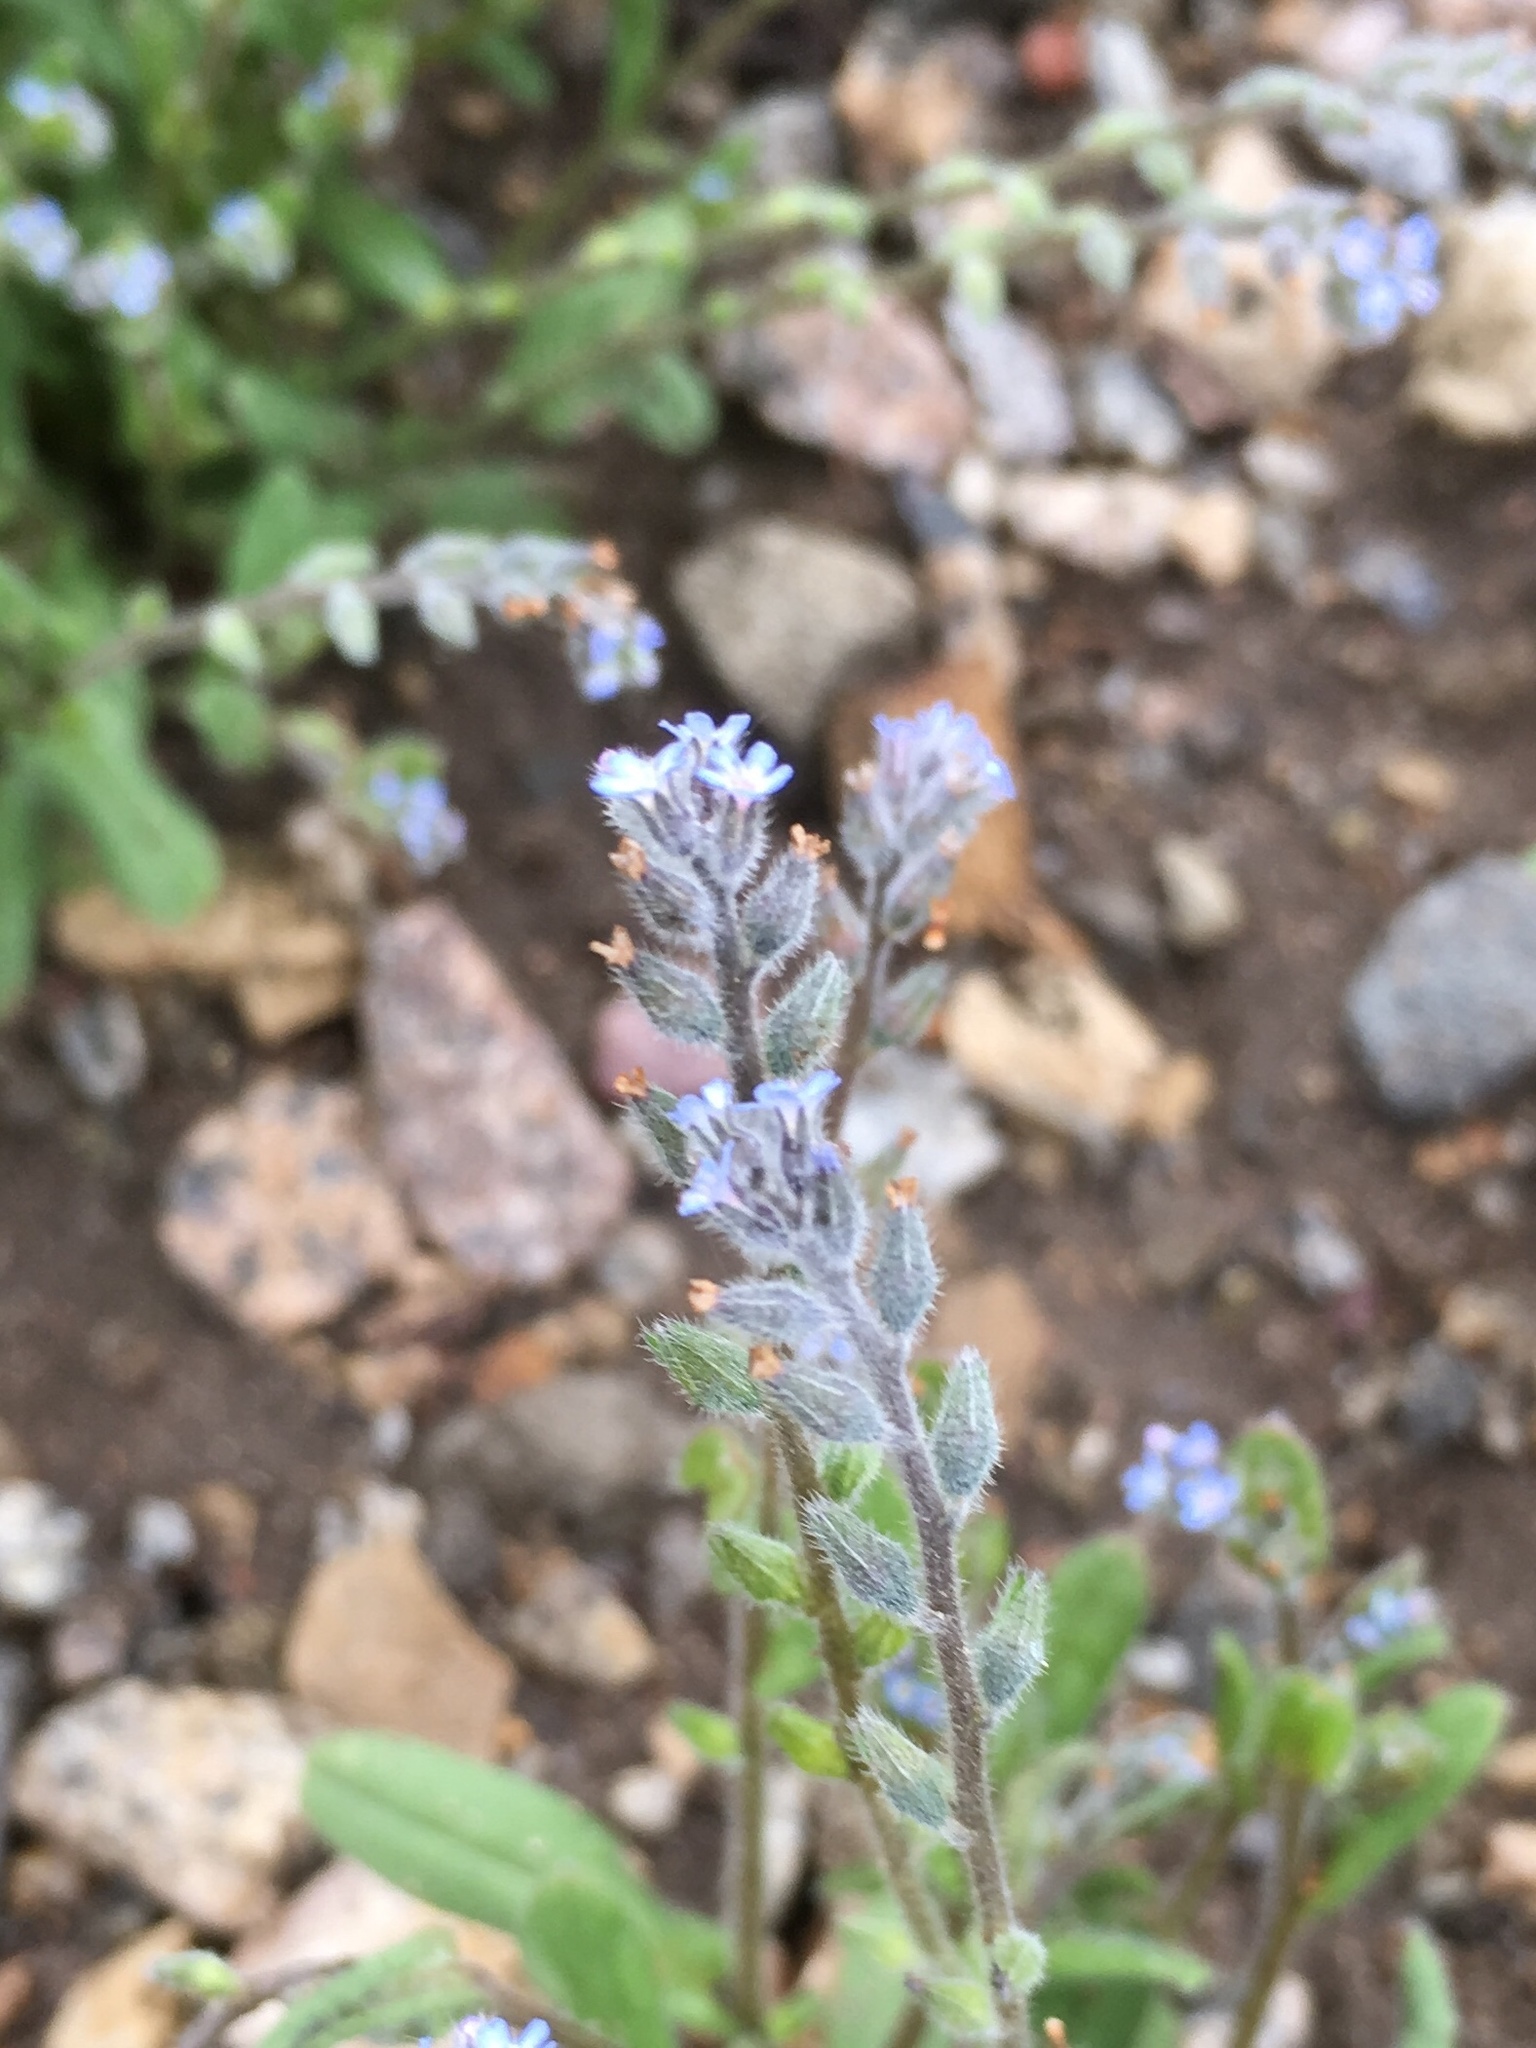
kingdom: Plantae
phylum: Tracheophyta
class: Magnoliopsida
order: Boraginales
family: Boraginaceae
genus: Myosotis
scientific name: Myosotis stricta
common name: Strict forget-me-not
